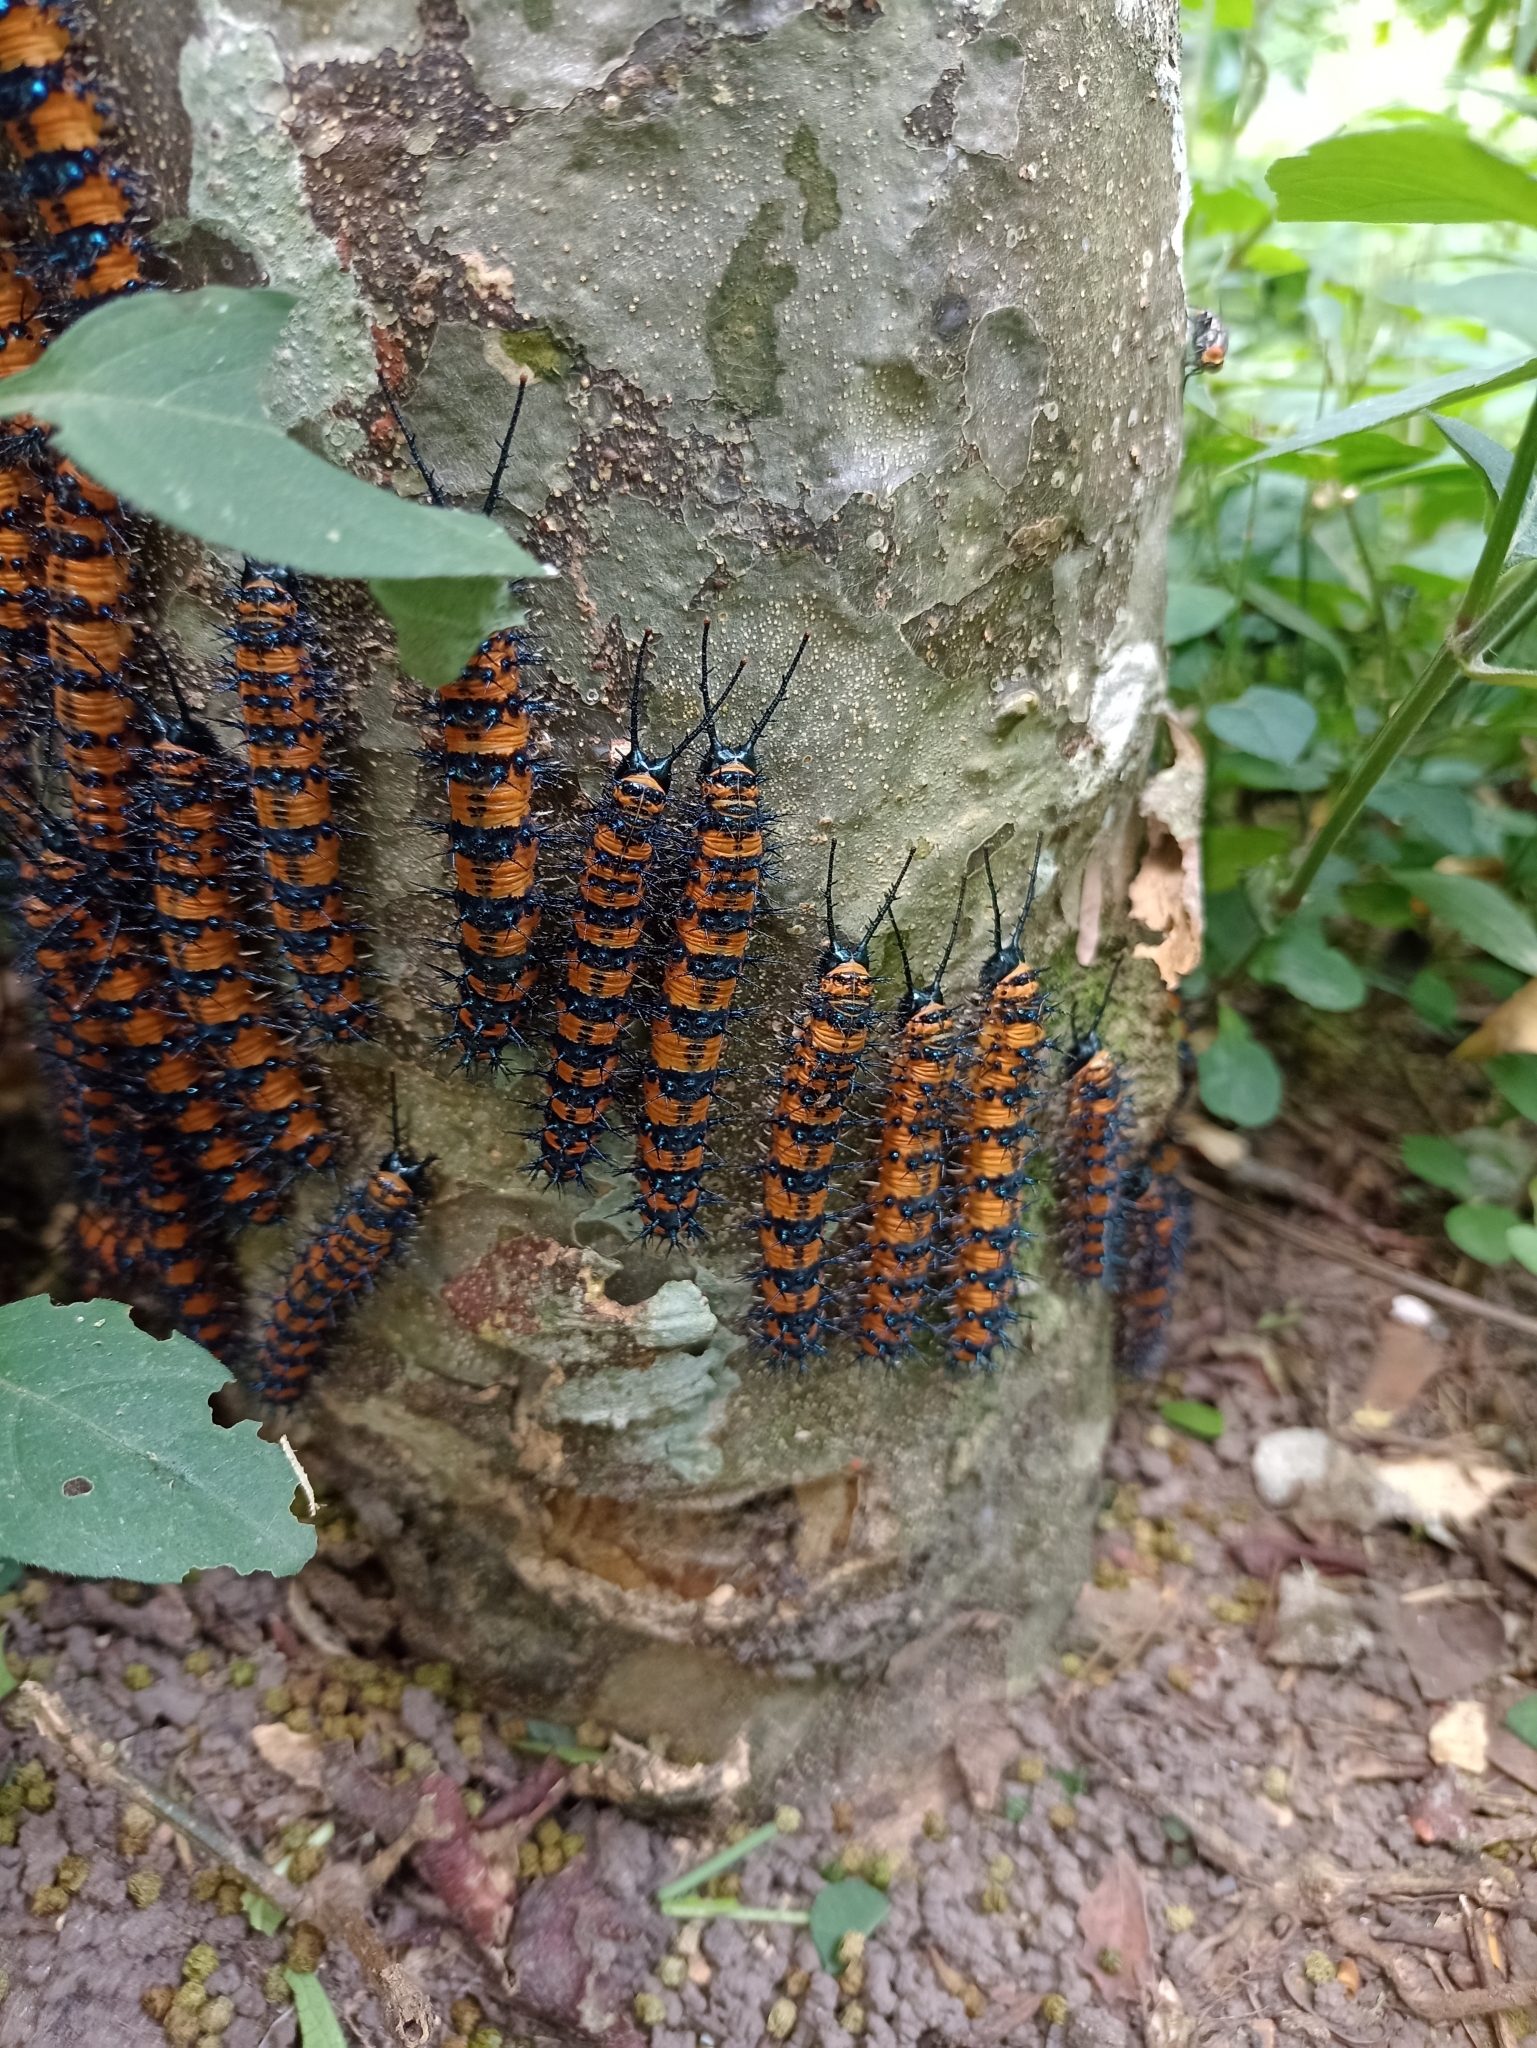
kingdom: Animalia
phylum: Arthropoda
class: Insecta
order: Lepidoptera
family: Nymphalidae
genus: Panacea
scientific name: Panacea prola
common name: Red flasher
